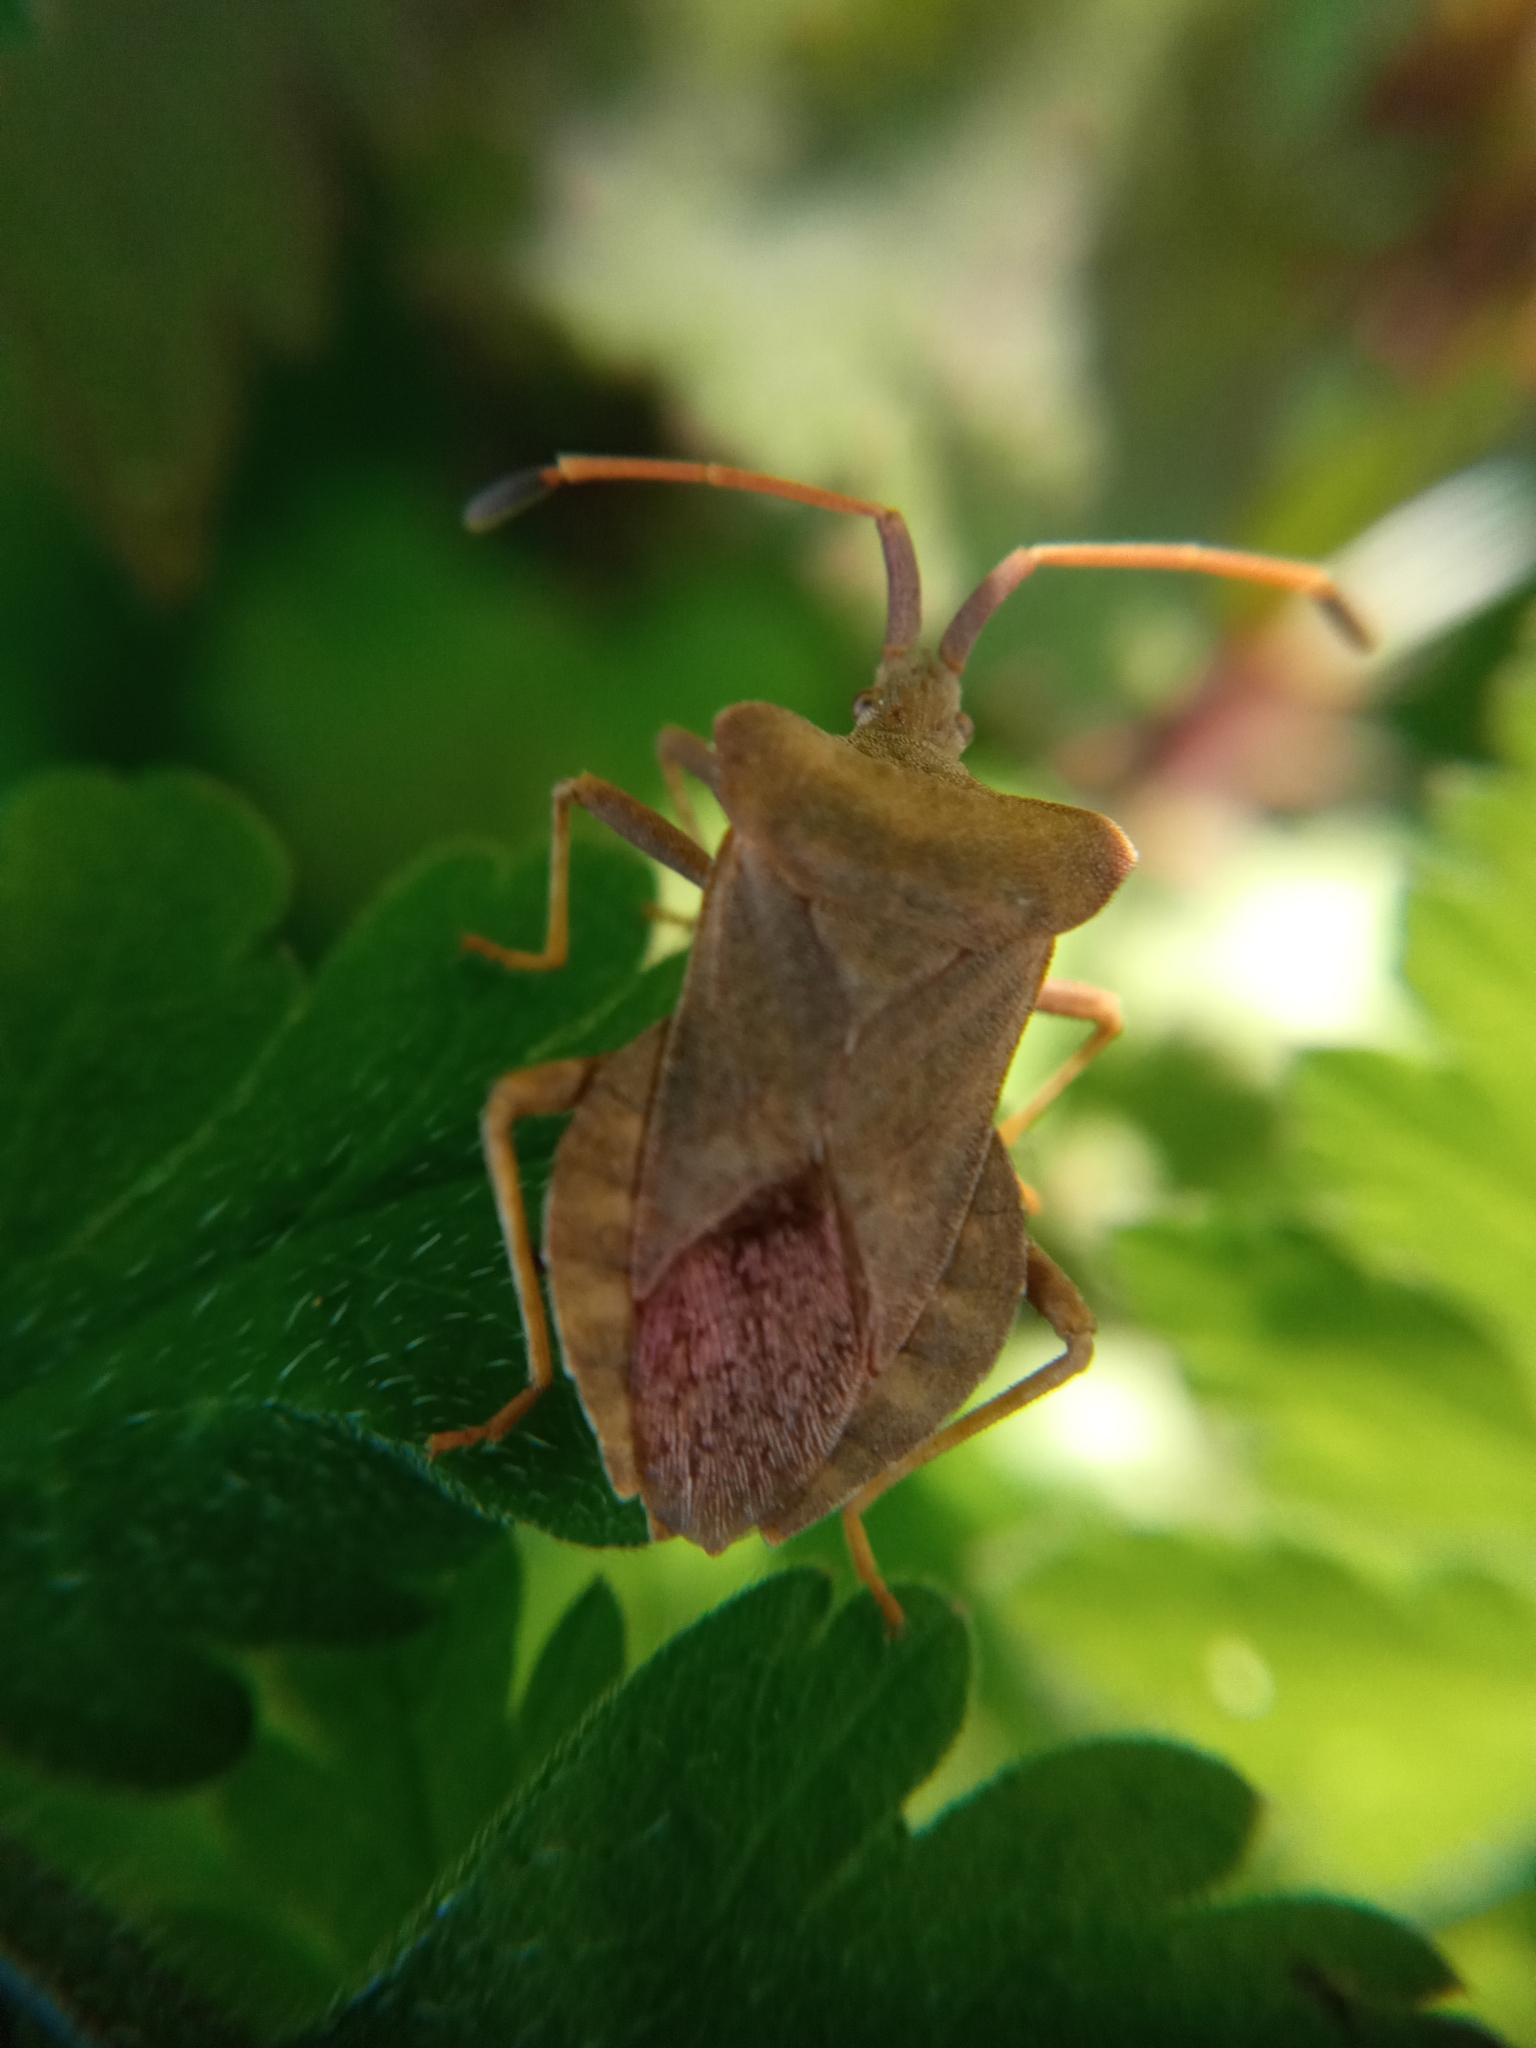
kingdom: Animalia
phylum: Arthropoda
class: Insecta
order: Hemiptera
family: Coreidae
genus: Coreus
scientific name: Coreus marginatus
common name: Dock bug
